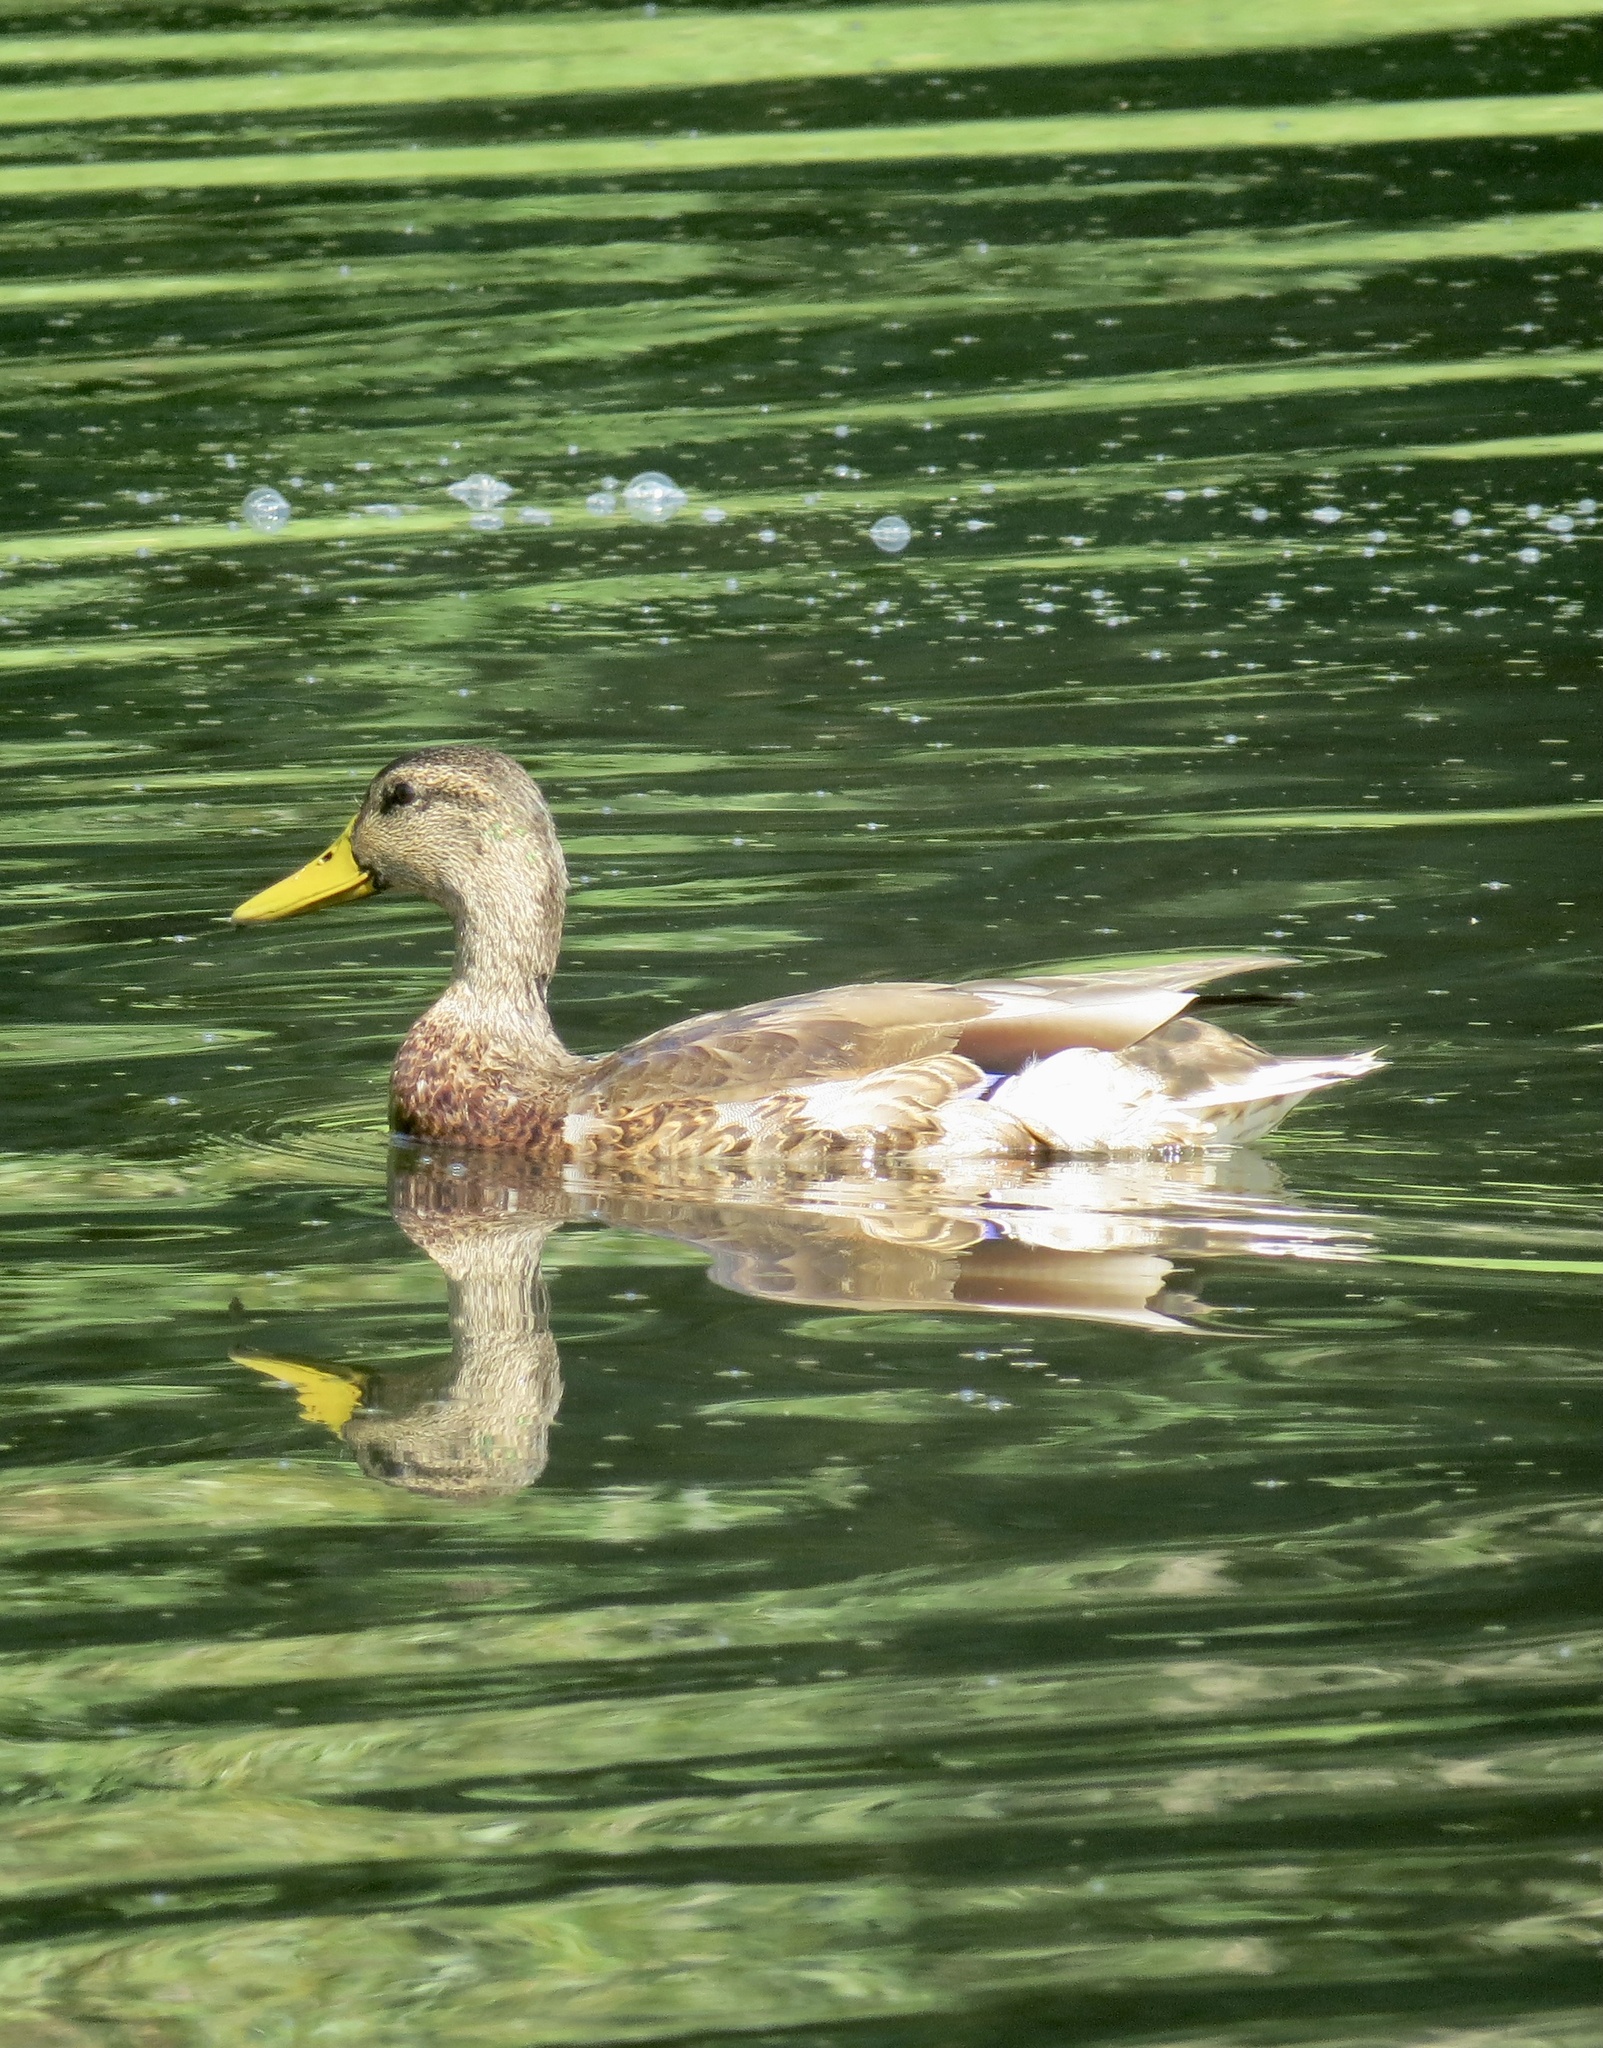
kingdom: Animalia
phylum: Chordata
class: Aves
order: Anseriformes
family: Anatidae
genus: Anas
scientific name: Anas platyrhynchos
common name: Mallard
